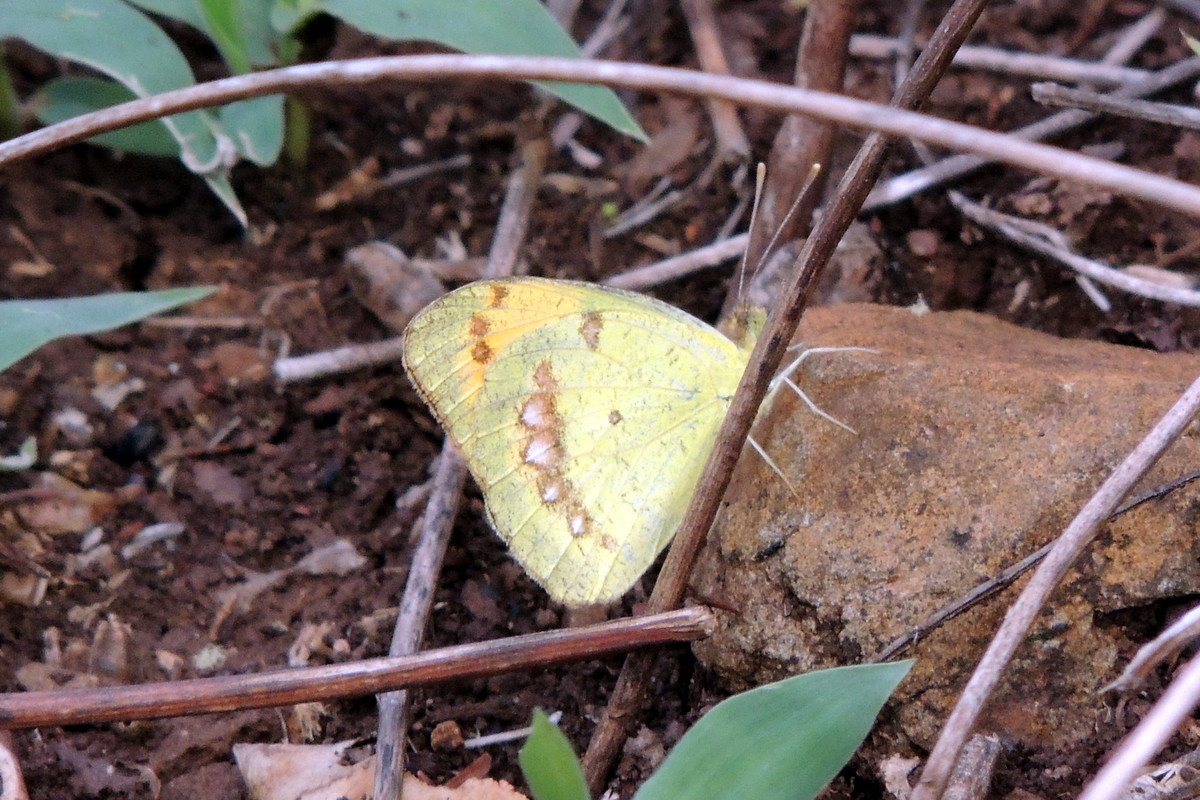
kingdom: Animalia
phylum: Arthropoda
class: Insecta
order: Lepidoptera
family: Pieridae
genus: Ixias
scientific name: Ixias marianne
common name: White orange tip
